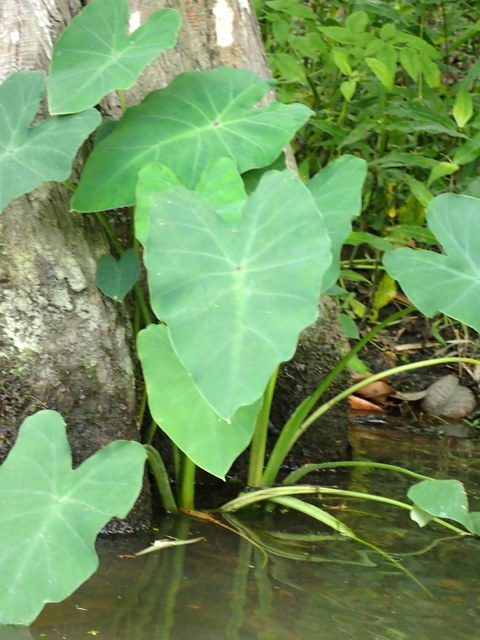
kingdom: Plantae
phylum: Tracheophyta
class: Liliopsida
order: Alismatales
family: Araceae
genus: Colocasia
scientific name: Colocasia esculenta
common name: Taro
